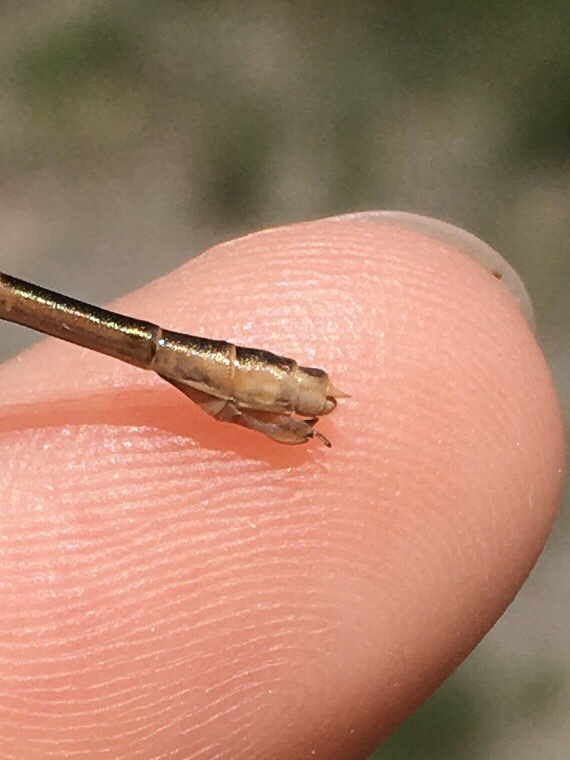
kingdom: Animalia
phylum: Arthropoda
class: Insecta
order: Odonata
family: Lestidae
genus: Lestes
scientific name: Lestes rectangularis
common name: Slender spreadwing
